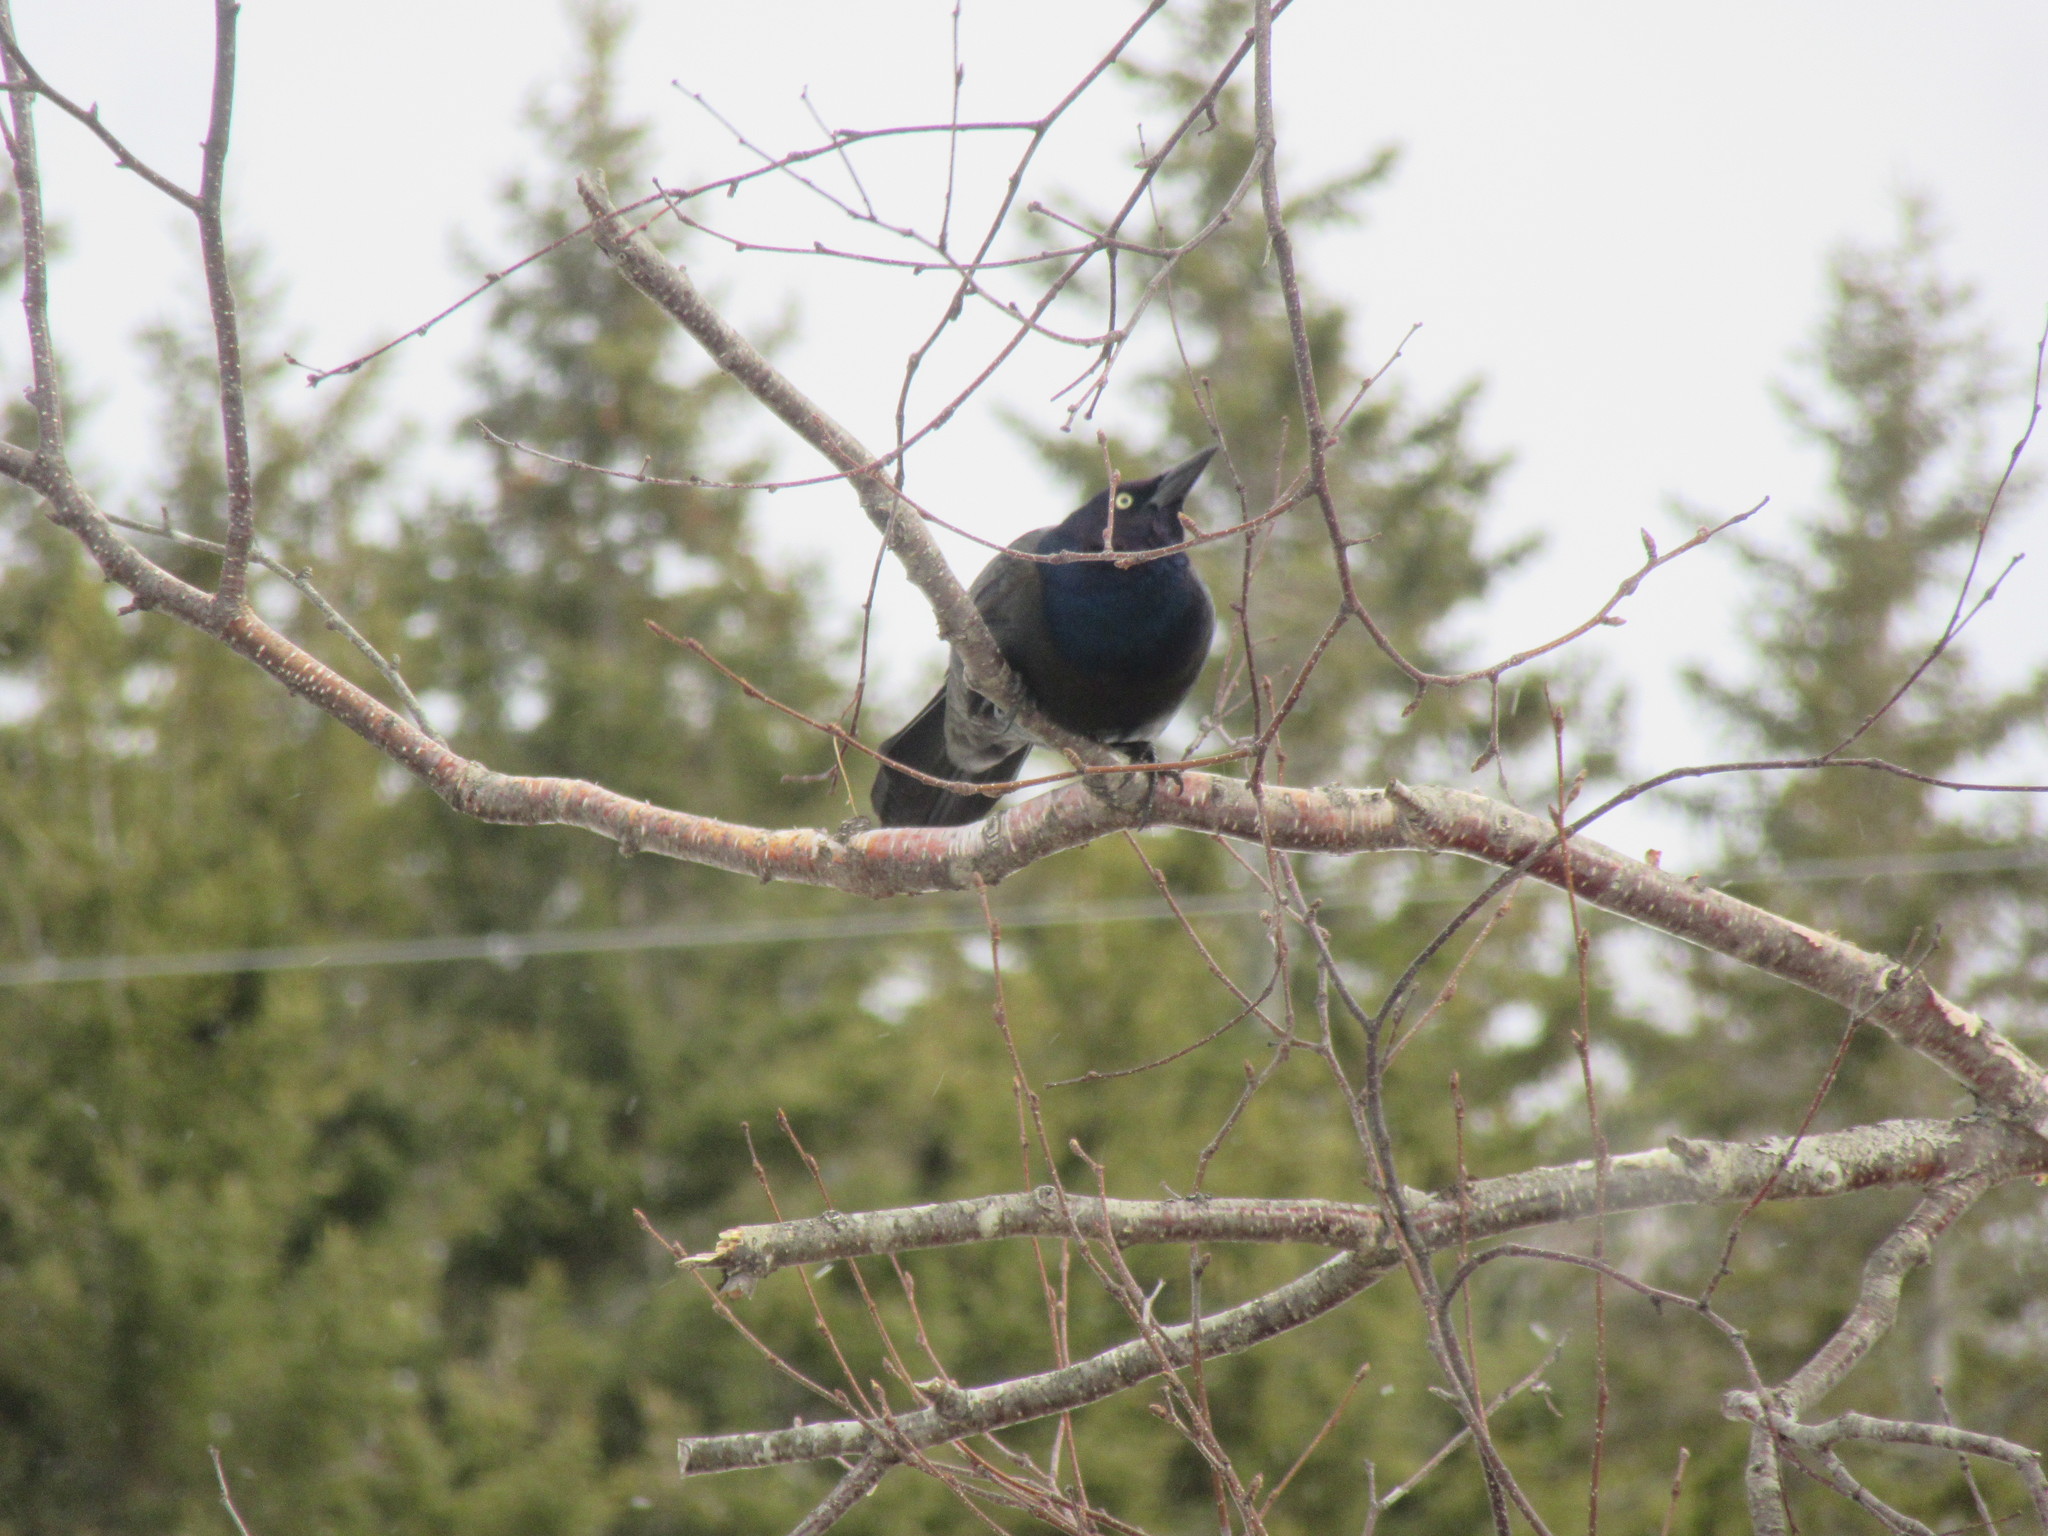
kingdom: Animalia
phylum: Chordata
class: Aves
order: Passeriformes
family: Icteridae
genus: Quiscalus
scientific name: Quiscalus quiscula
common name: Common grackle
